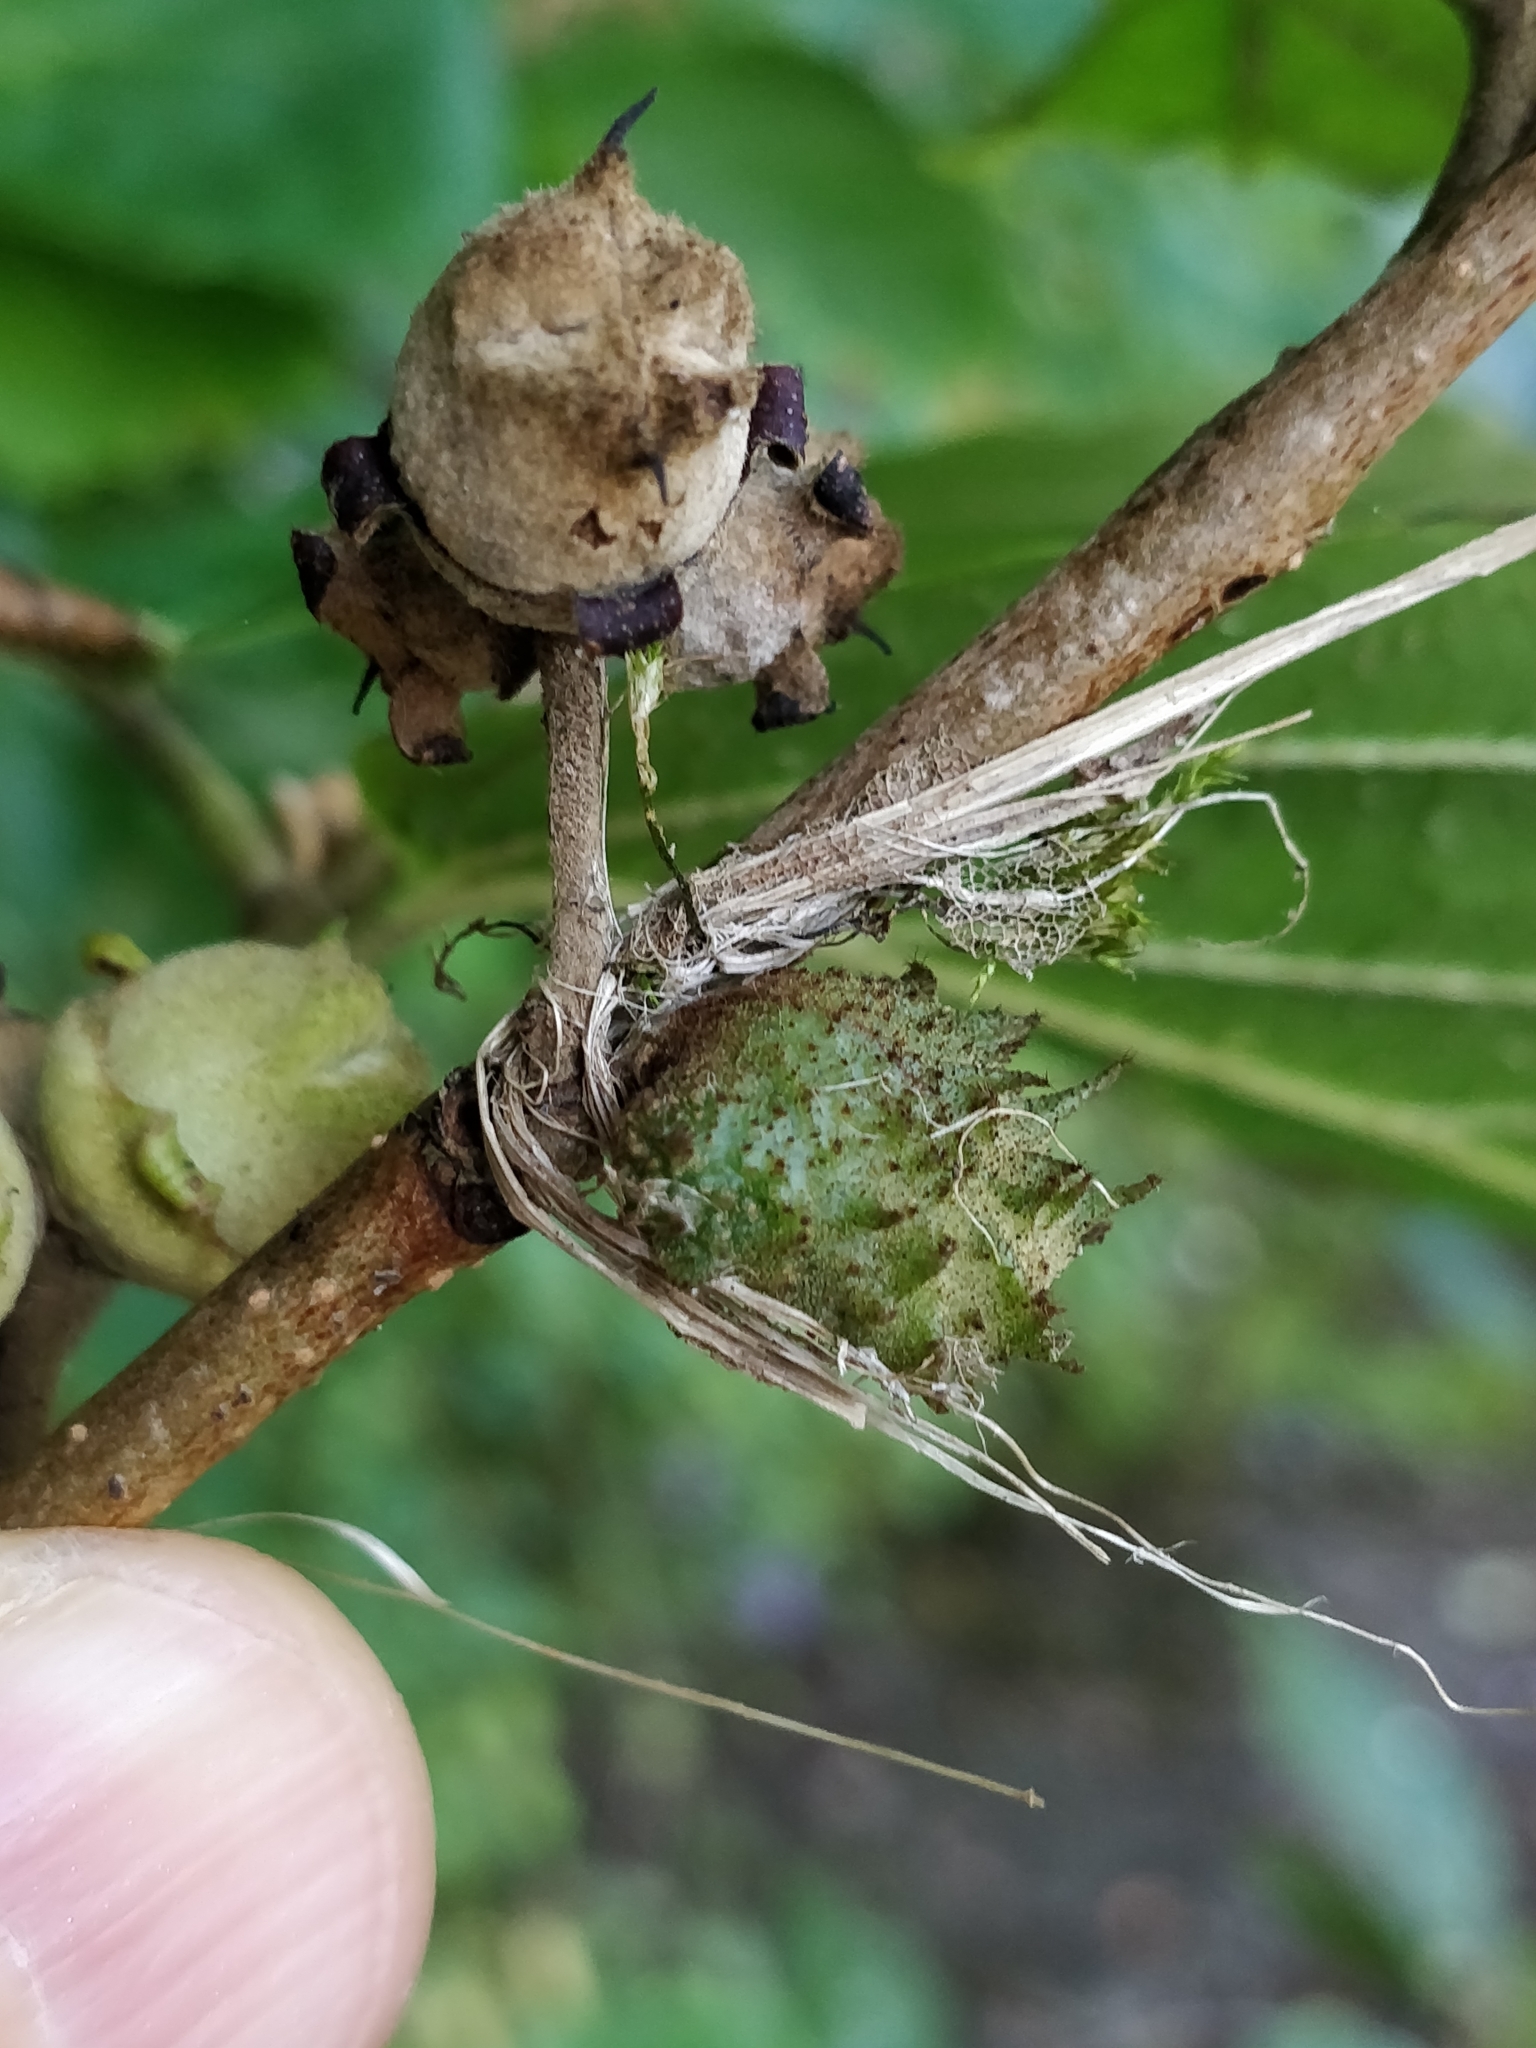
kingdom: Animalia
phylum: Arthropoda
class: Insecta
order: Hemiptera
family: Aphididae
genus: Hamamelistes
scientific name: Hamamelistes spinosus
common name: Witch hazel gall aphid
